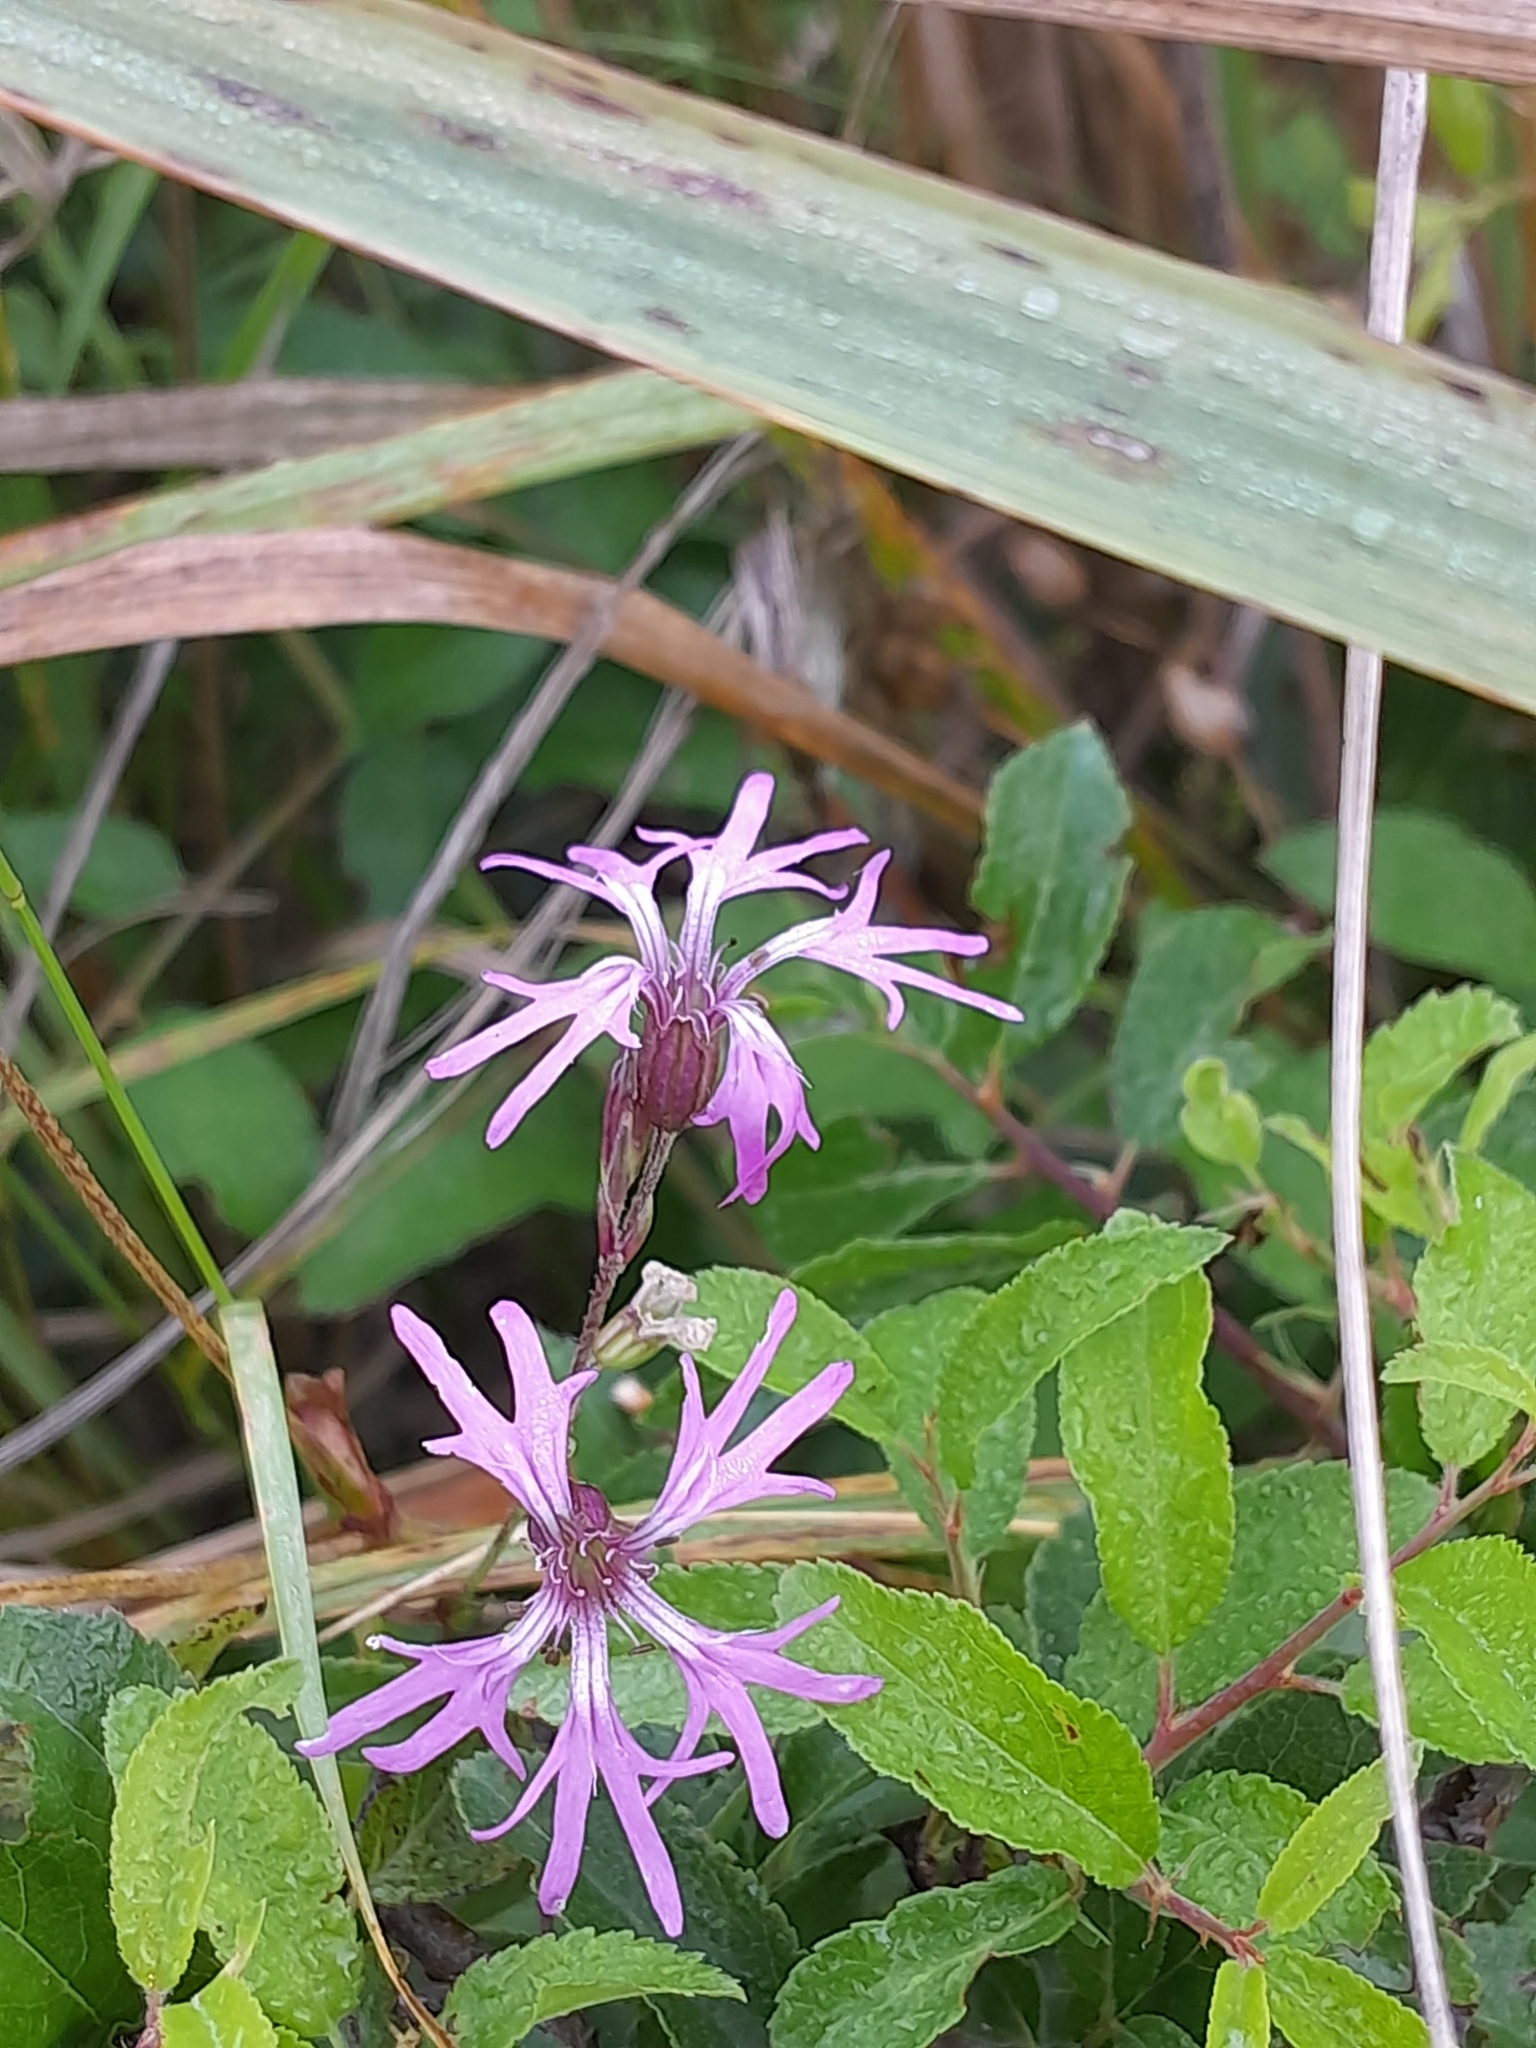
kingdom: Plantae
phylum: Tracheophyta
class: Magnoliopsida
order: Caryophyllales
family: Caryophyllaceae
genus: Silene
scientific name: Silene flos-cuculi
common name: Ragged-robin
